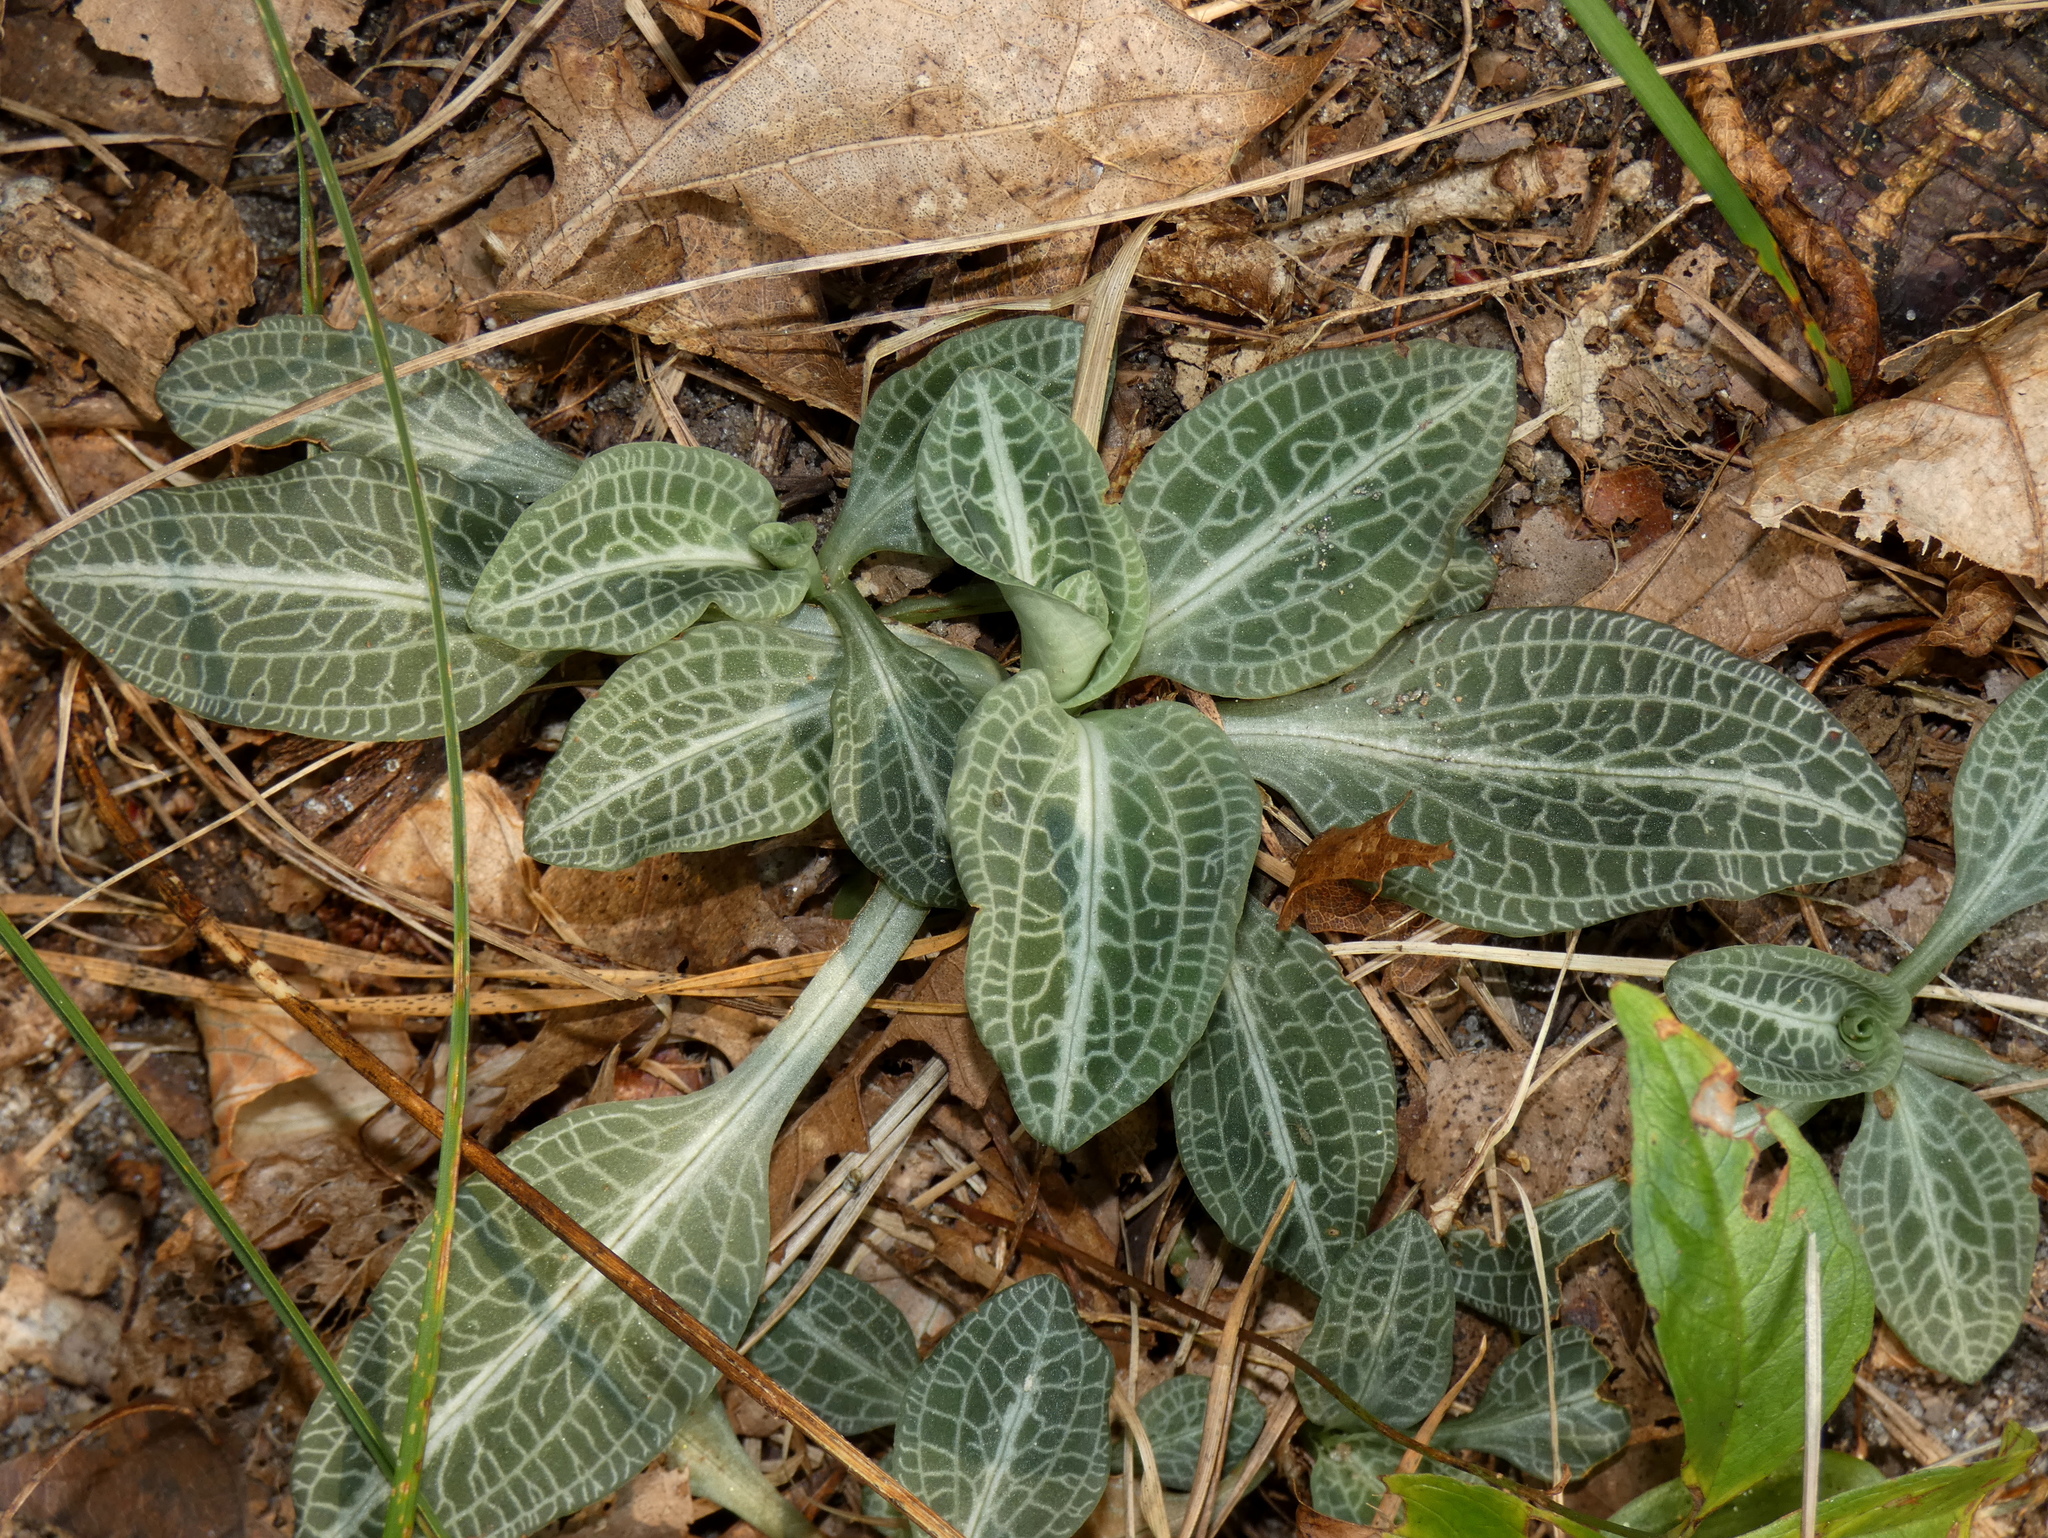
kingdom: Plantae
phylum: Tracheophyta
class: Liliopsida
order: Asparagales
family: Orchidaceae
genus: Goodyera
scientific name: Goodyera pubescens
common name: Downy rattlesnake-plantain
